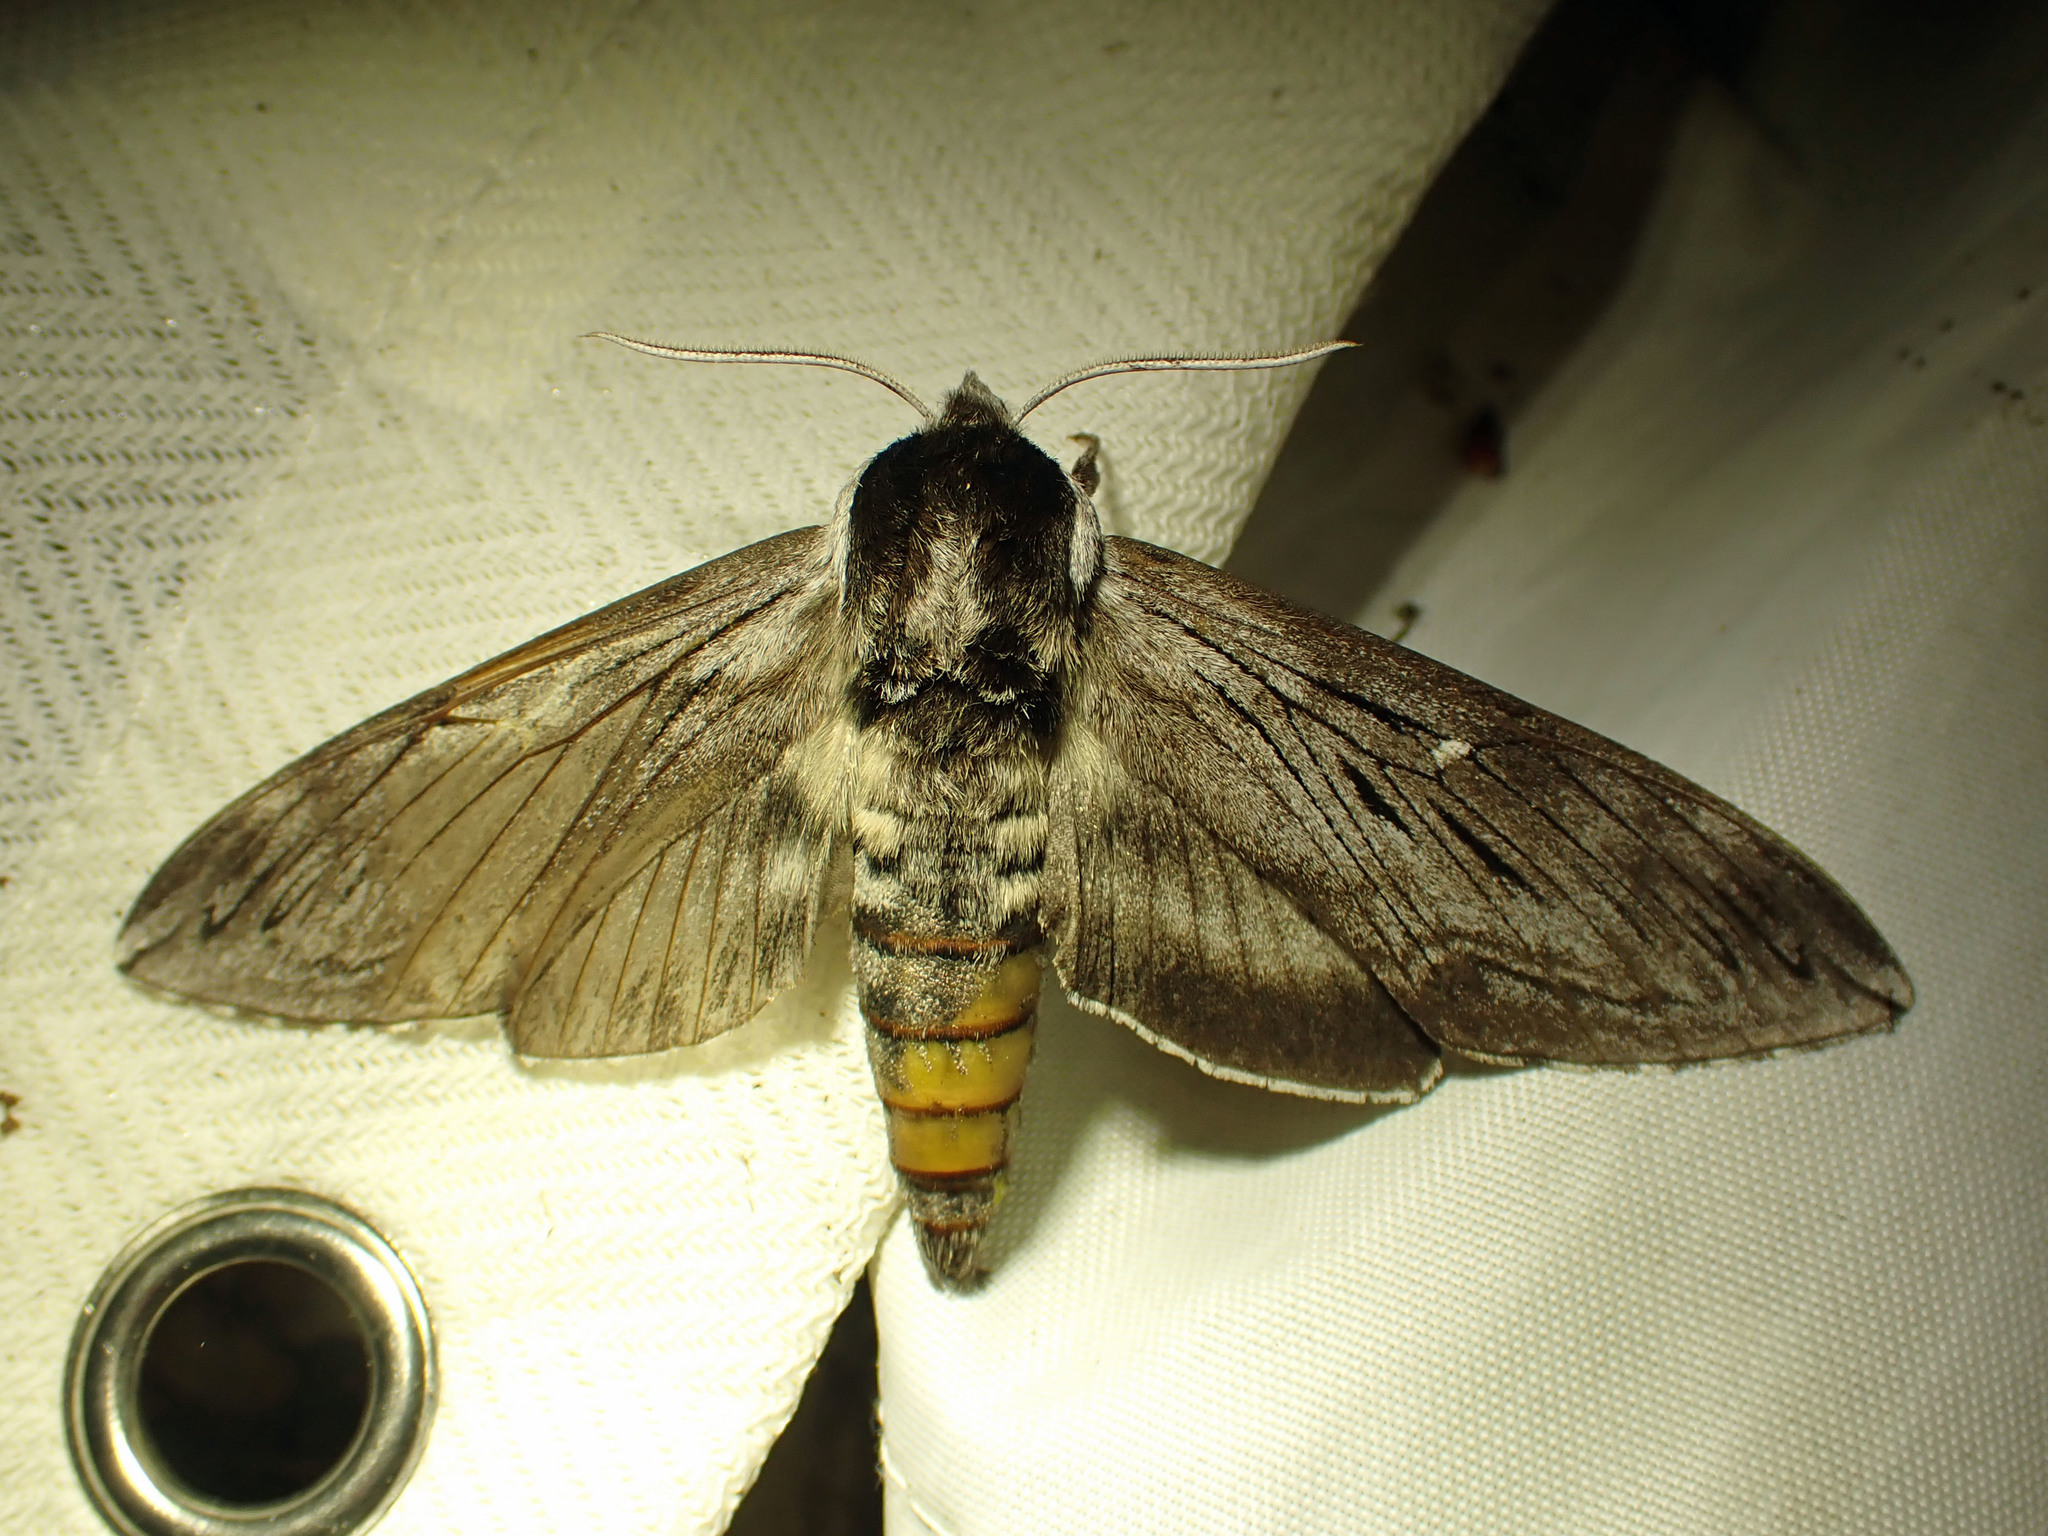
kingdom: Animalia
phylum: Arthropoda
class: Insecta
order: Lepidoptera
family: Sphingidae
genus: Sphinx
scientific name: Sphinx poecila
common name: Northern apple sphinx
